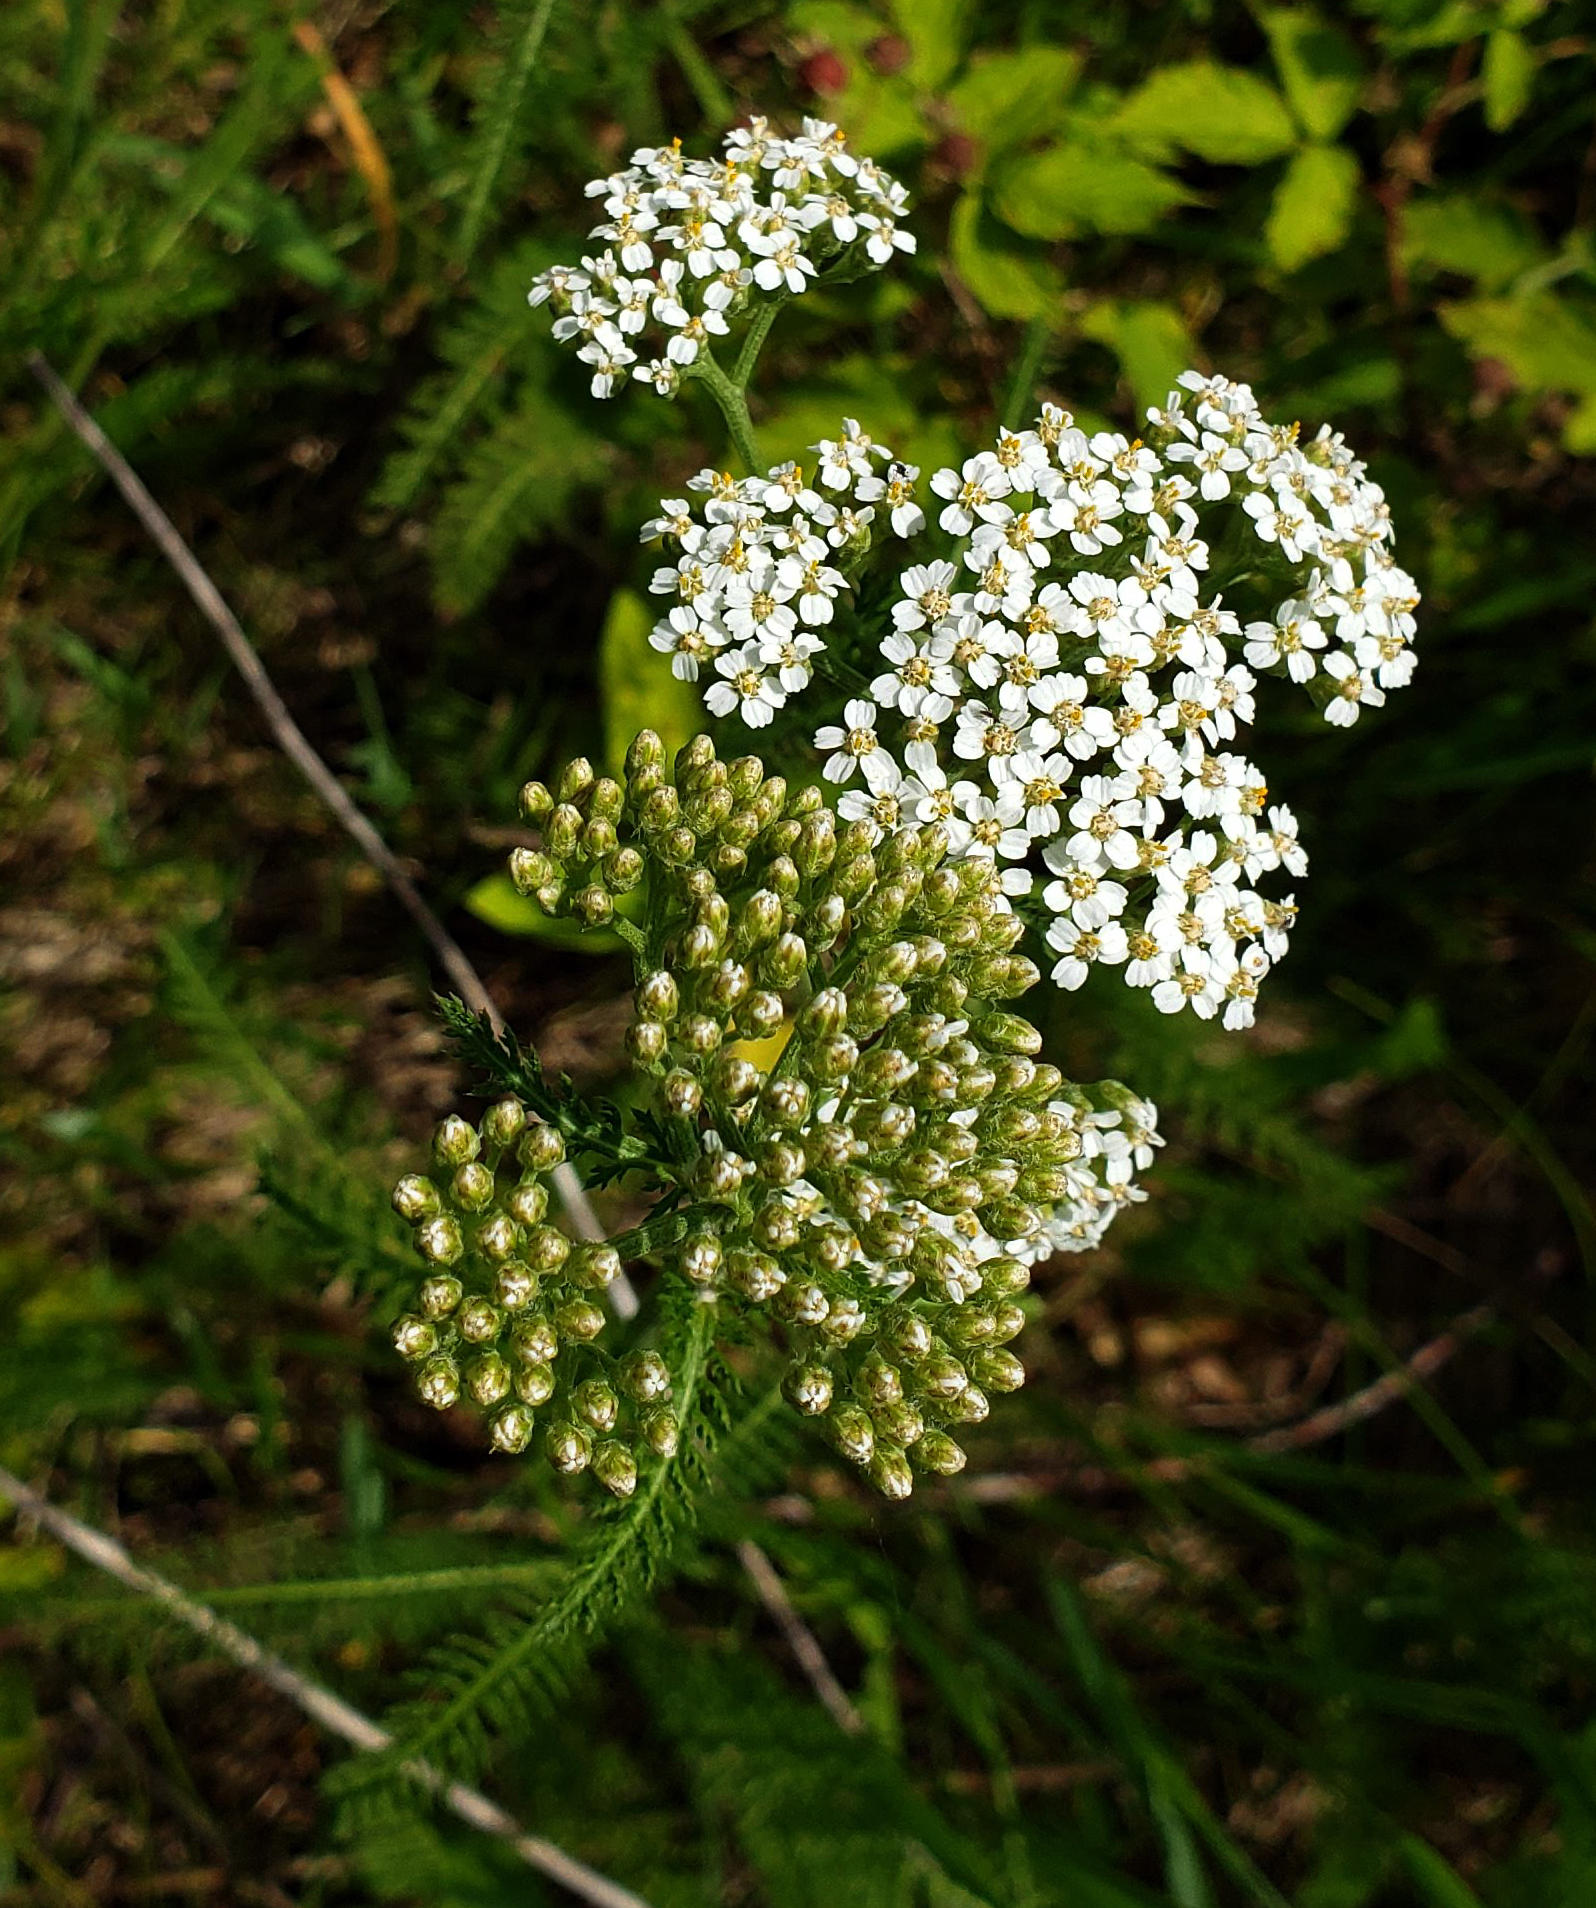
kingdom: Plantae
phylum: Tracheophyta
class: Magnoliopsida
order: Asterales
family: Asteraceae
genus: Achillea
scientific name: Achillea millefolium
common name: Yarrow
